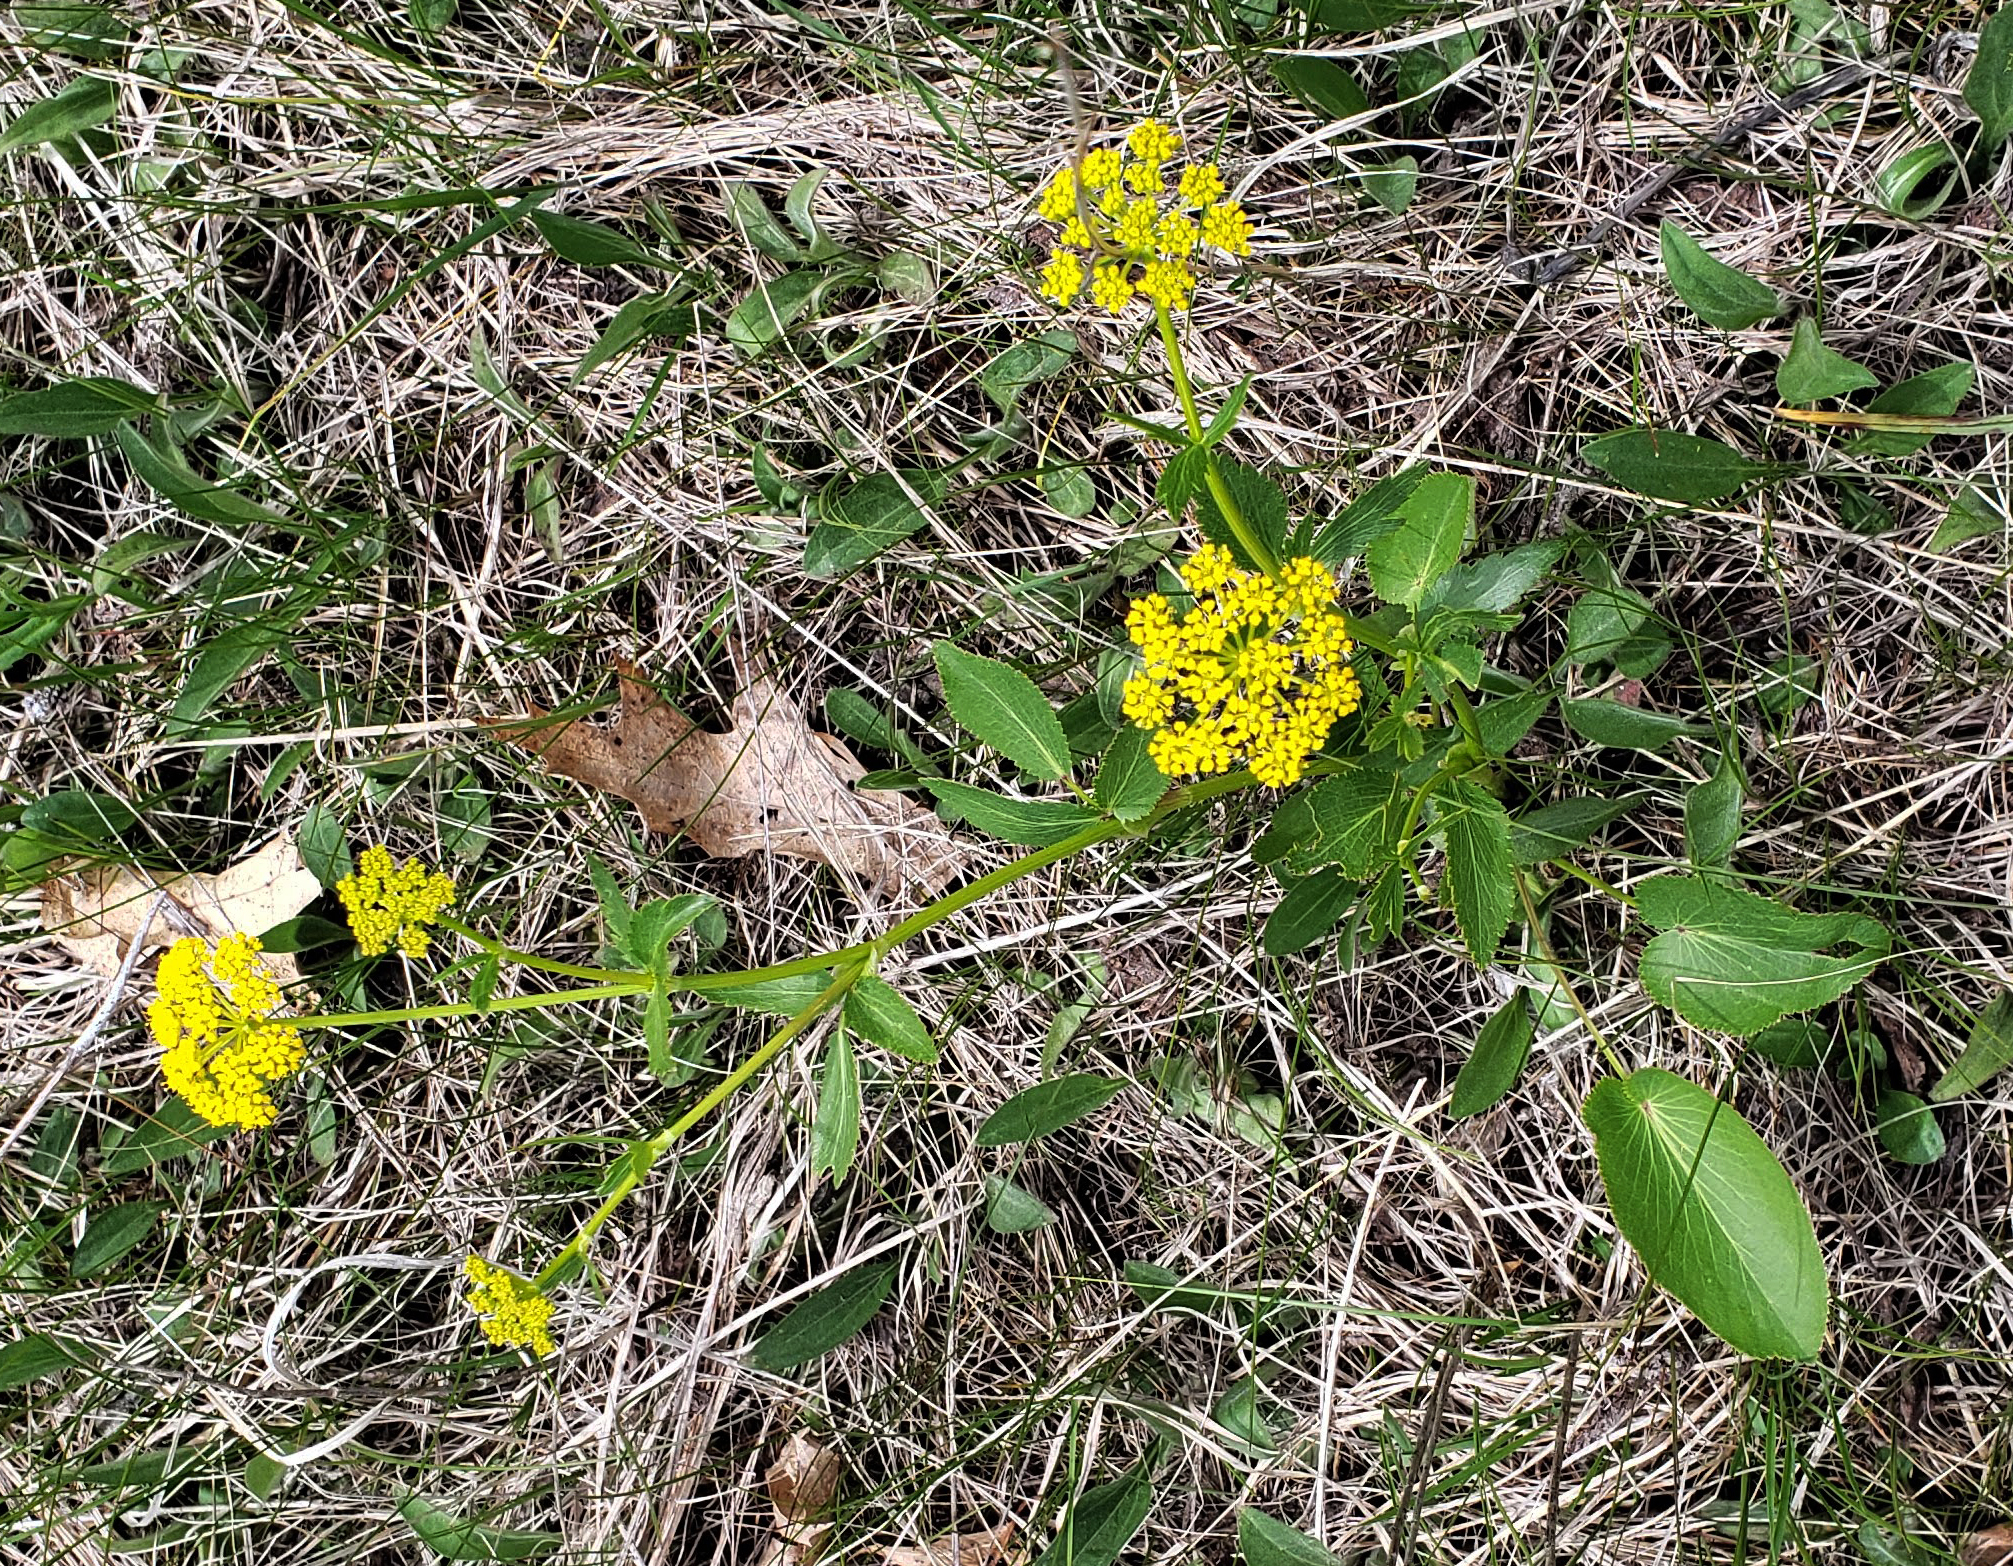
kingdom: Plantae
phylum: Tracheophyta
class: Magnoliopsida
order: Apiales
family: Apiaceae
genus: Zizia
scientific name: Zizia aptera
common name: Heart-leaved alexanders
